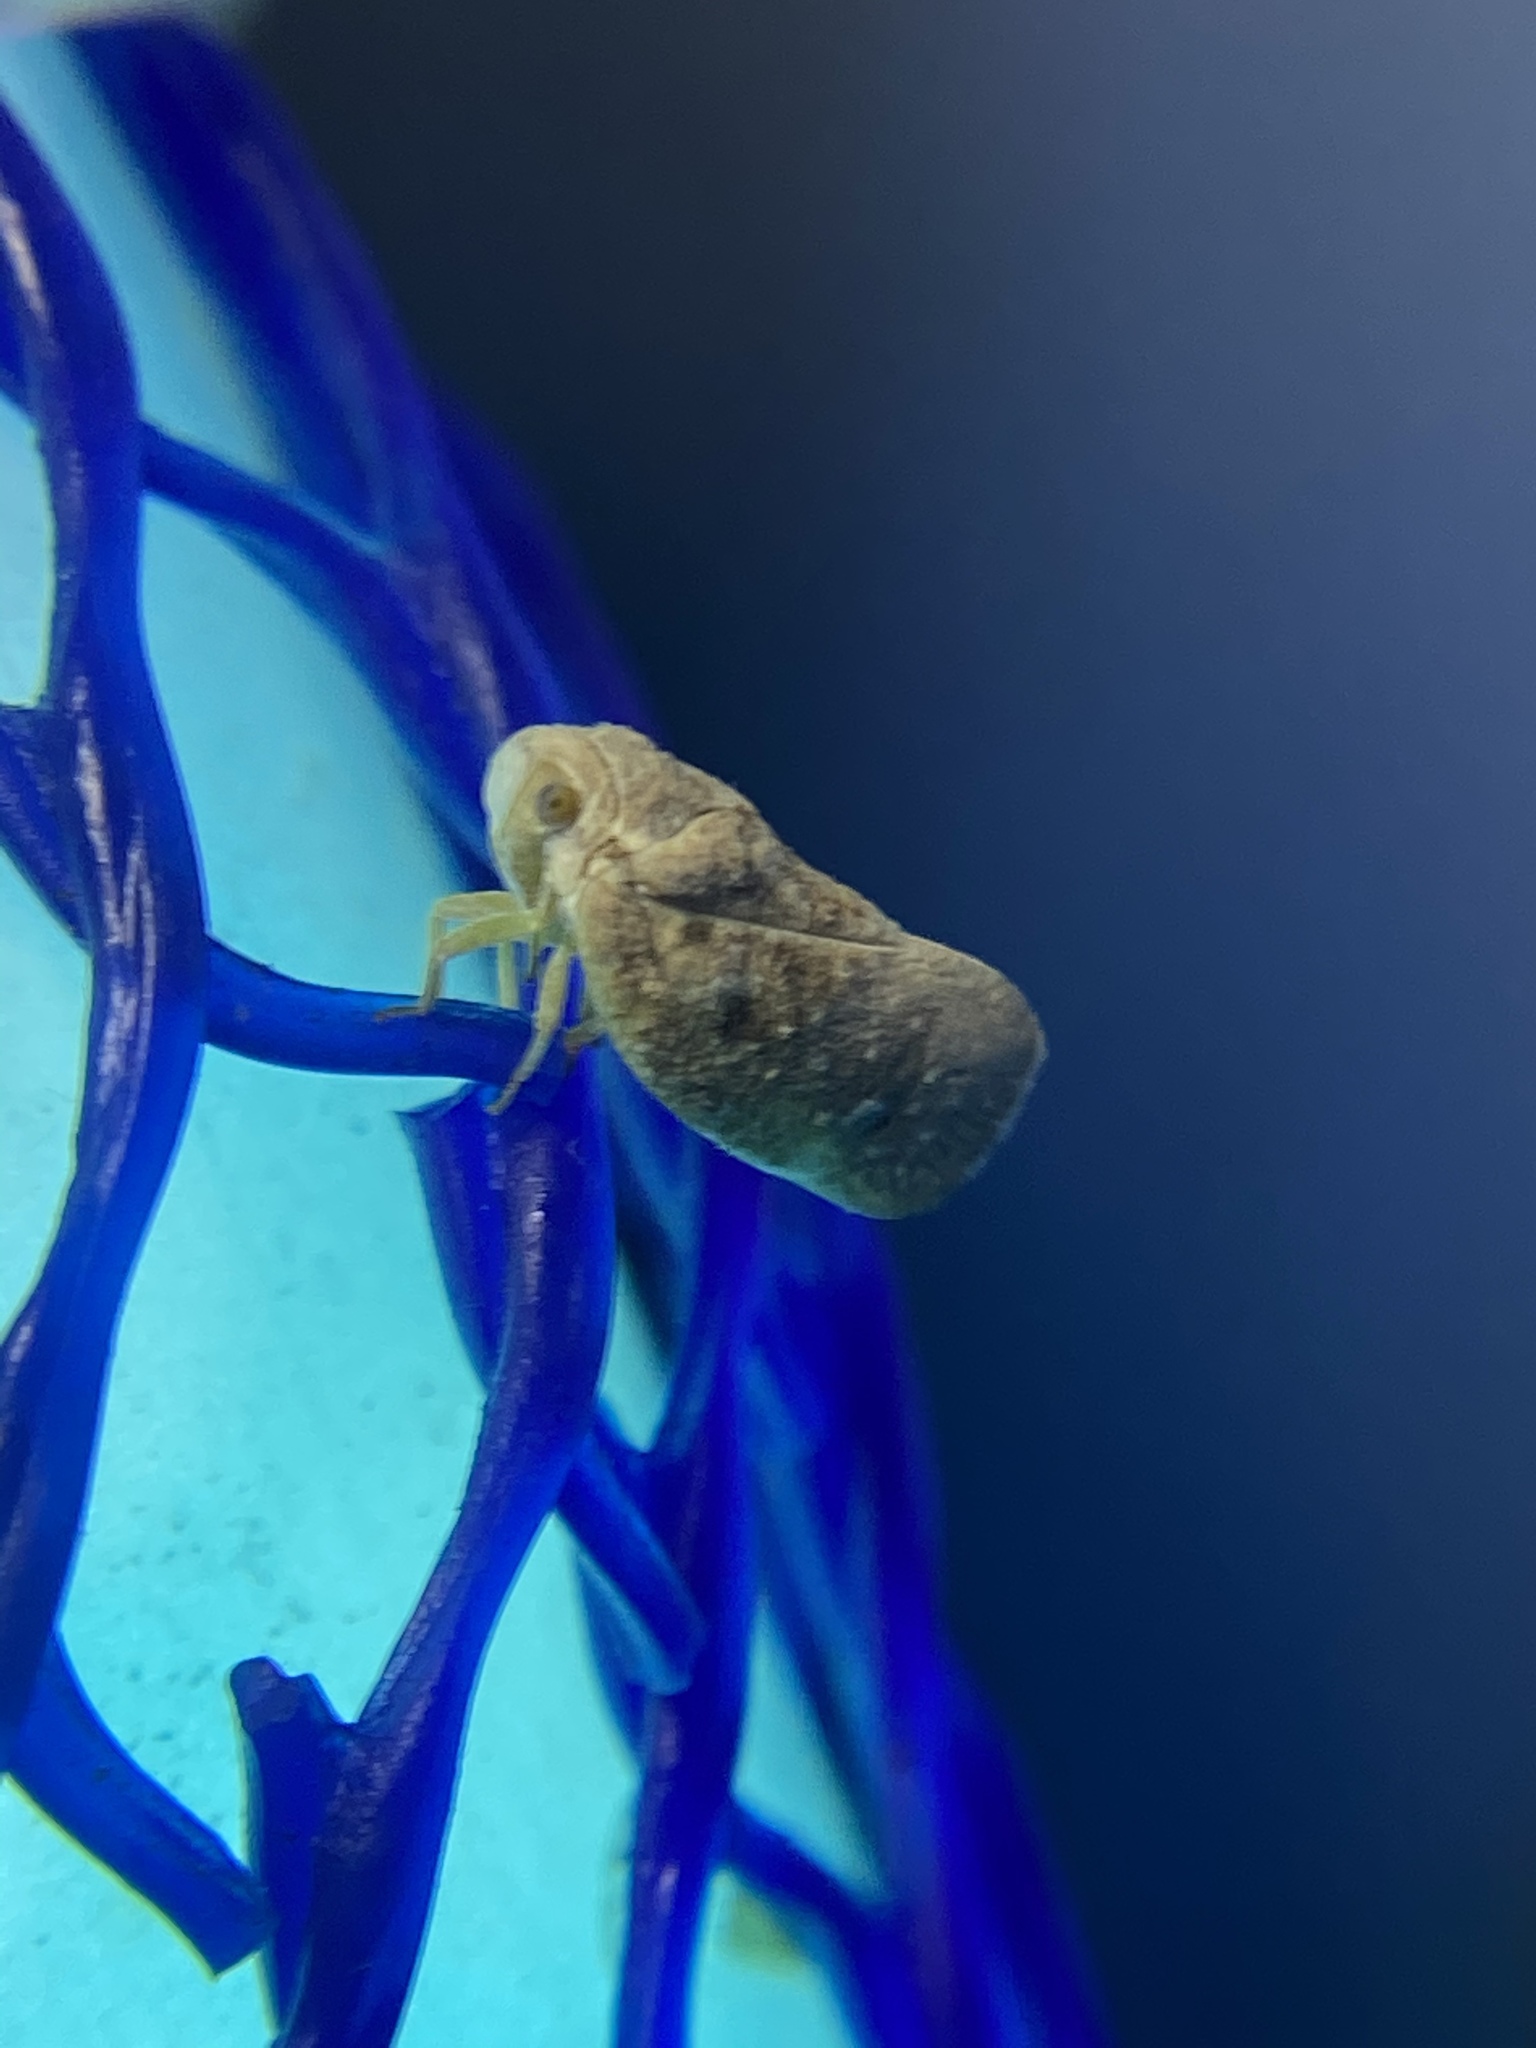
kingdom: Animalia
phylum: Arthropoda
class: Insecta
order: Hemiptera
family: Flatidae
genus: Metcalfa
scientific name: Metcalfa pruinosa
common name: Citrus flatid planthopper
